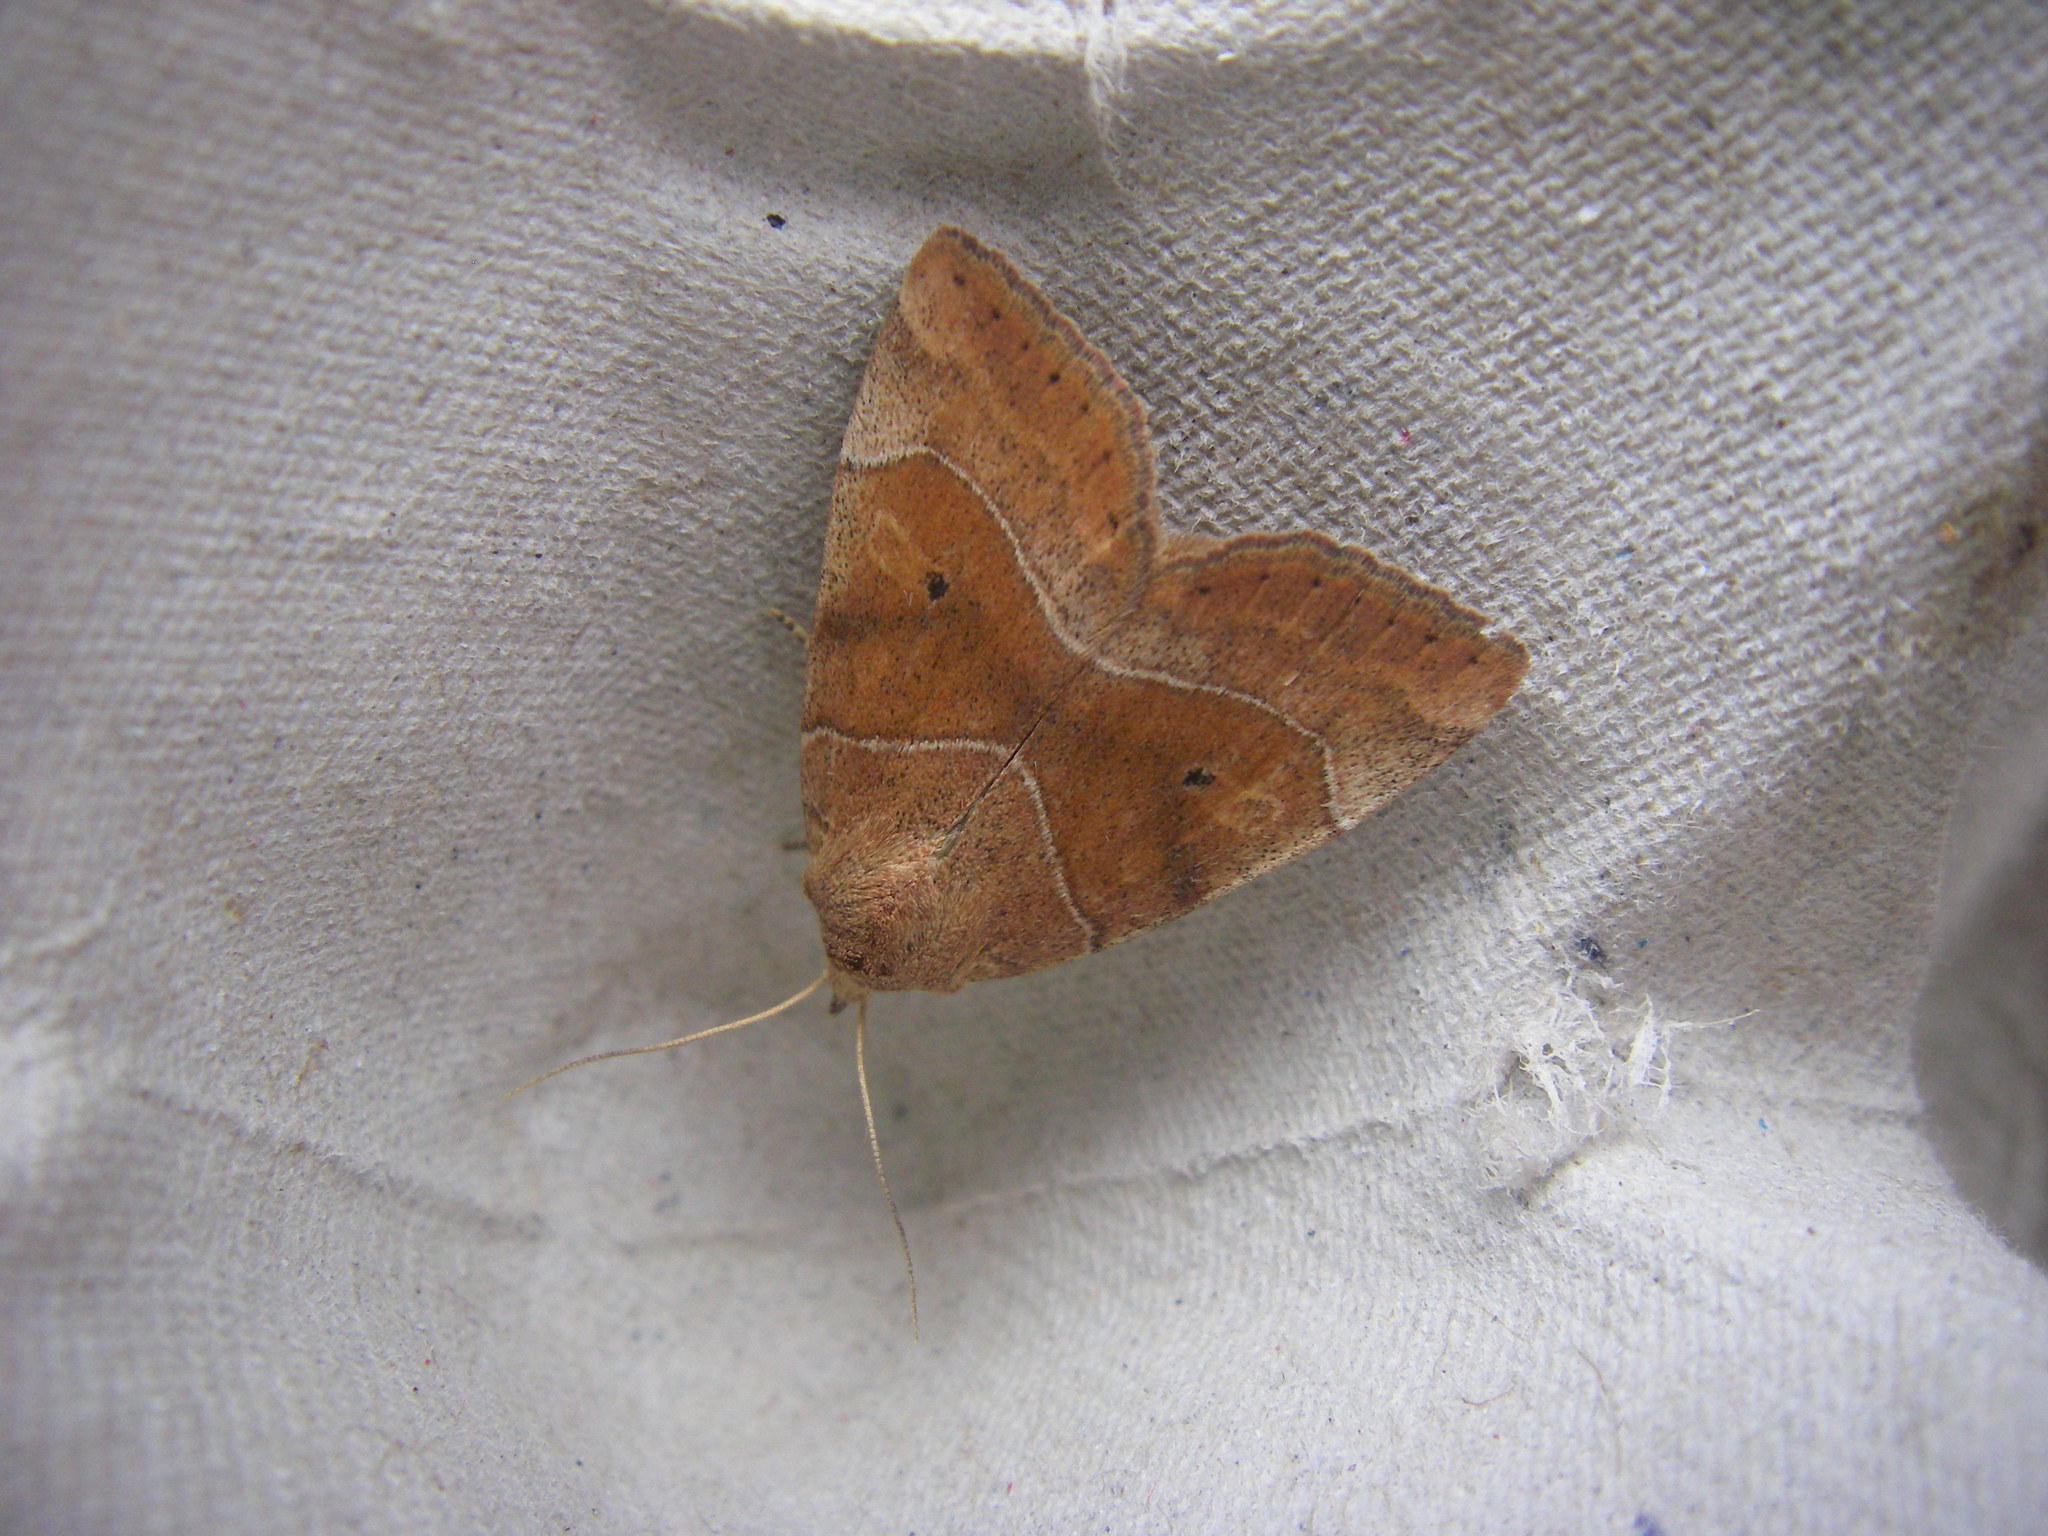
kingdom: Animalia
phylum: Arthropoda
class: Insecta
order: Lepidoptera
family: Noctuidae
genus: Cosmia
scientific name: Cosmia trapezina
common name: Dun-bar
